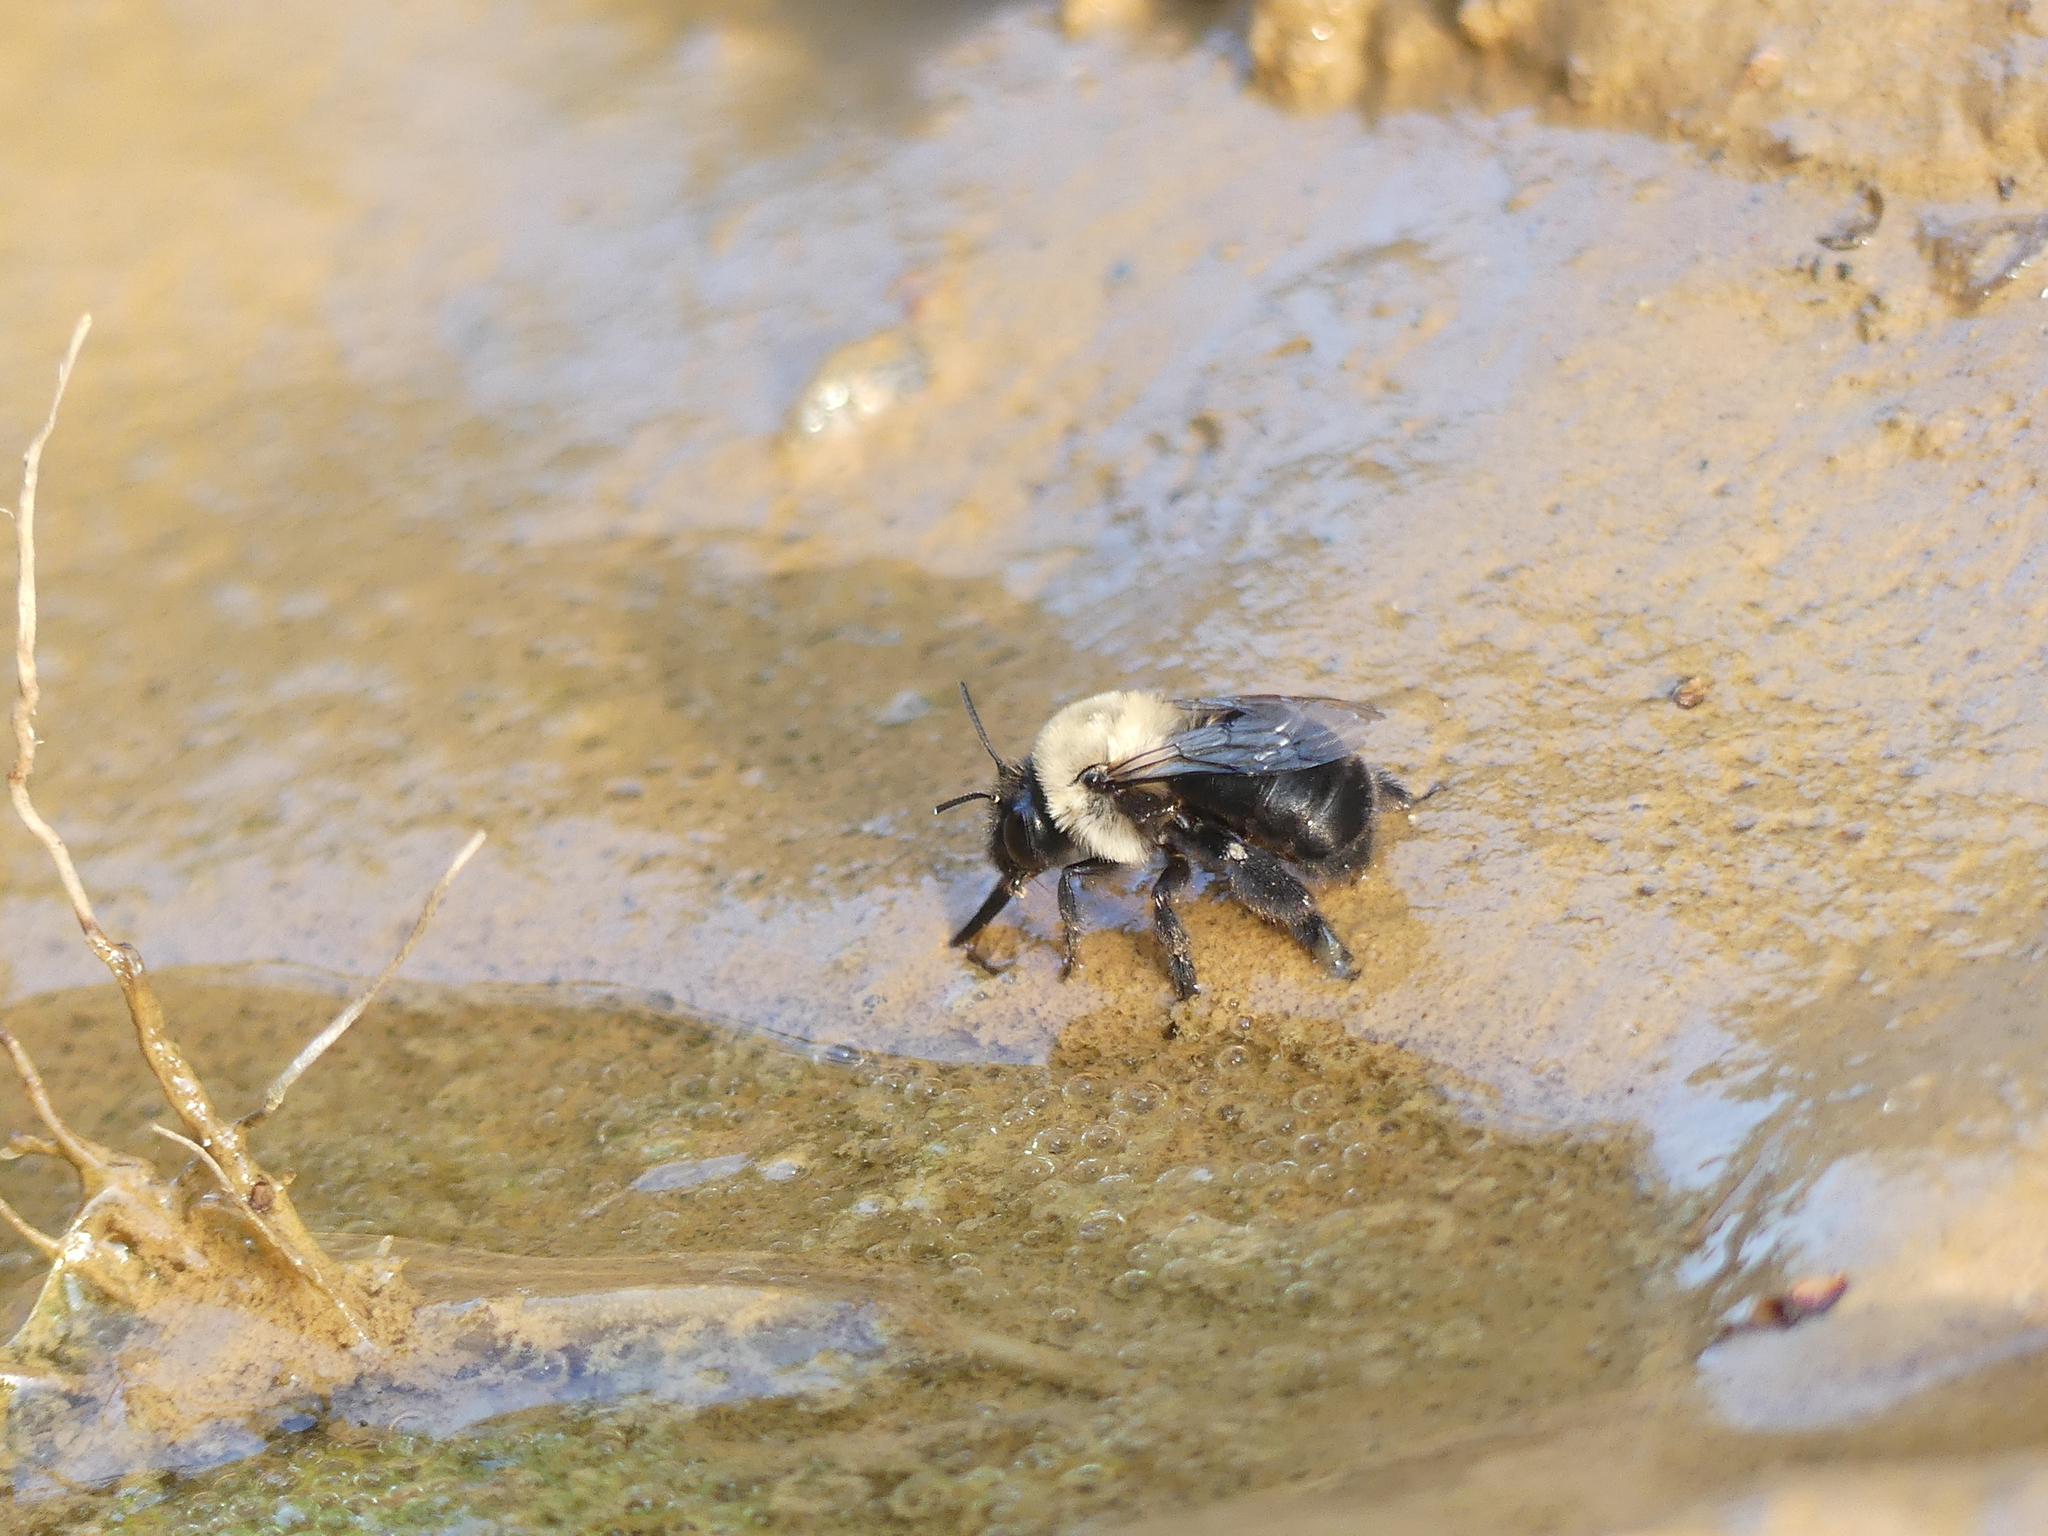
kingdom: Animalia
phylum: Arthropoda
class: Insecta
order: Hymenoptera
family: Apidae
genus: Anthophora
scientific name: Anthophora abrupta
